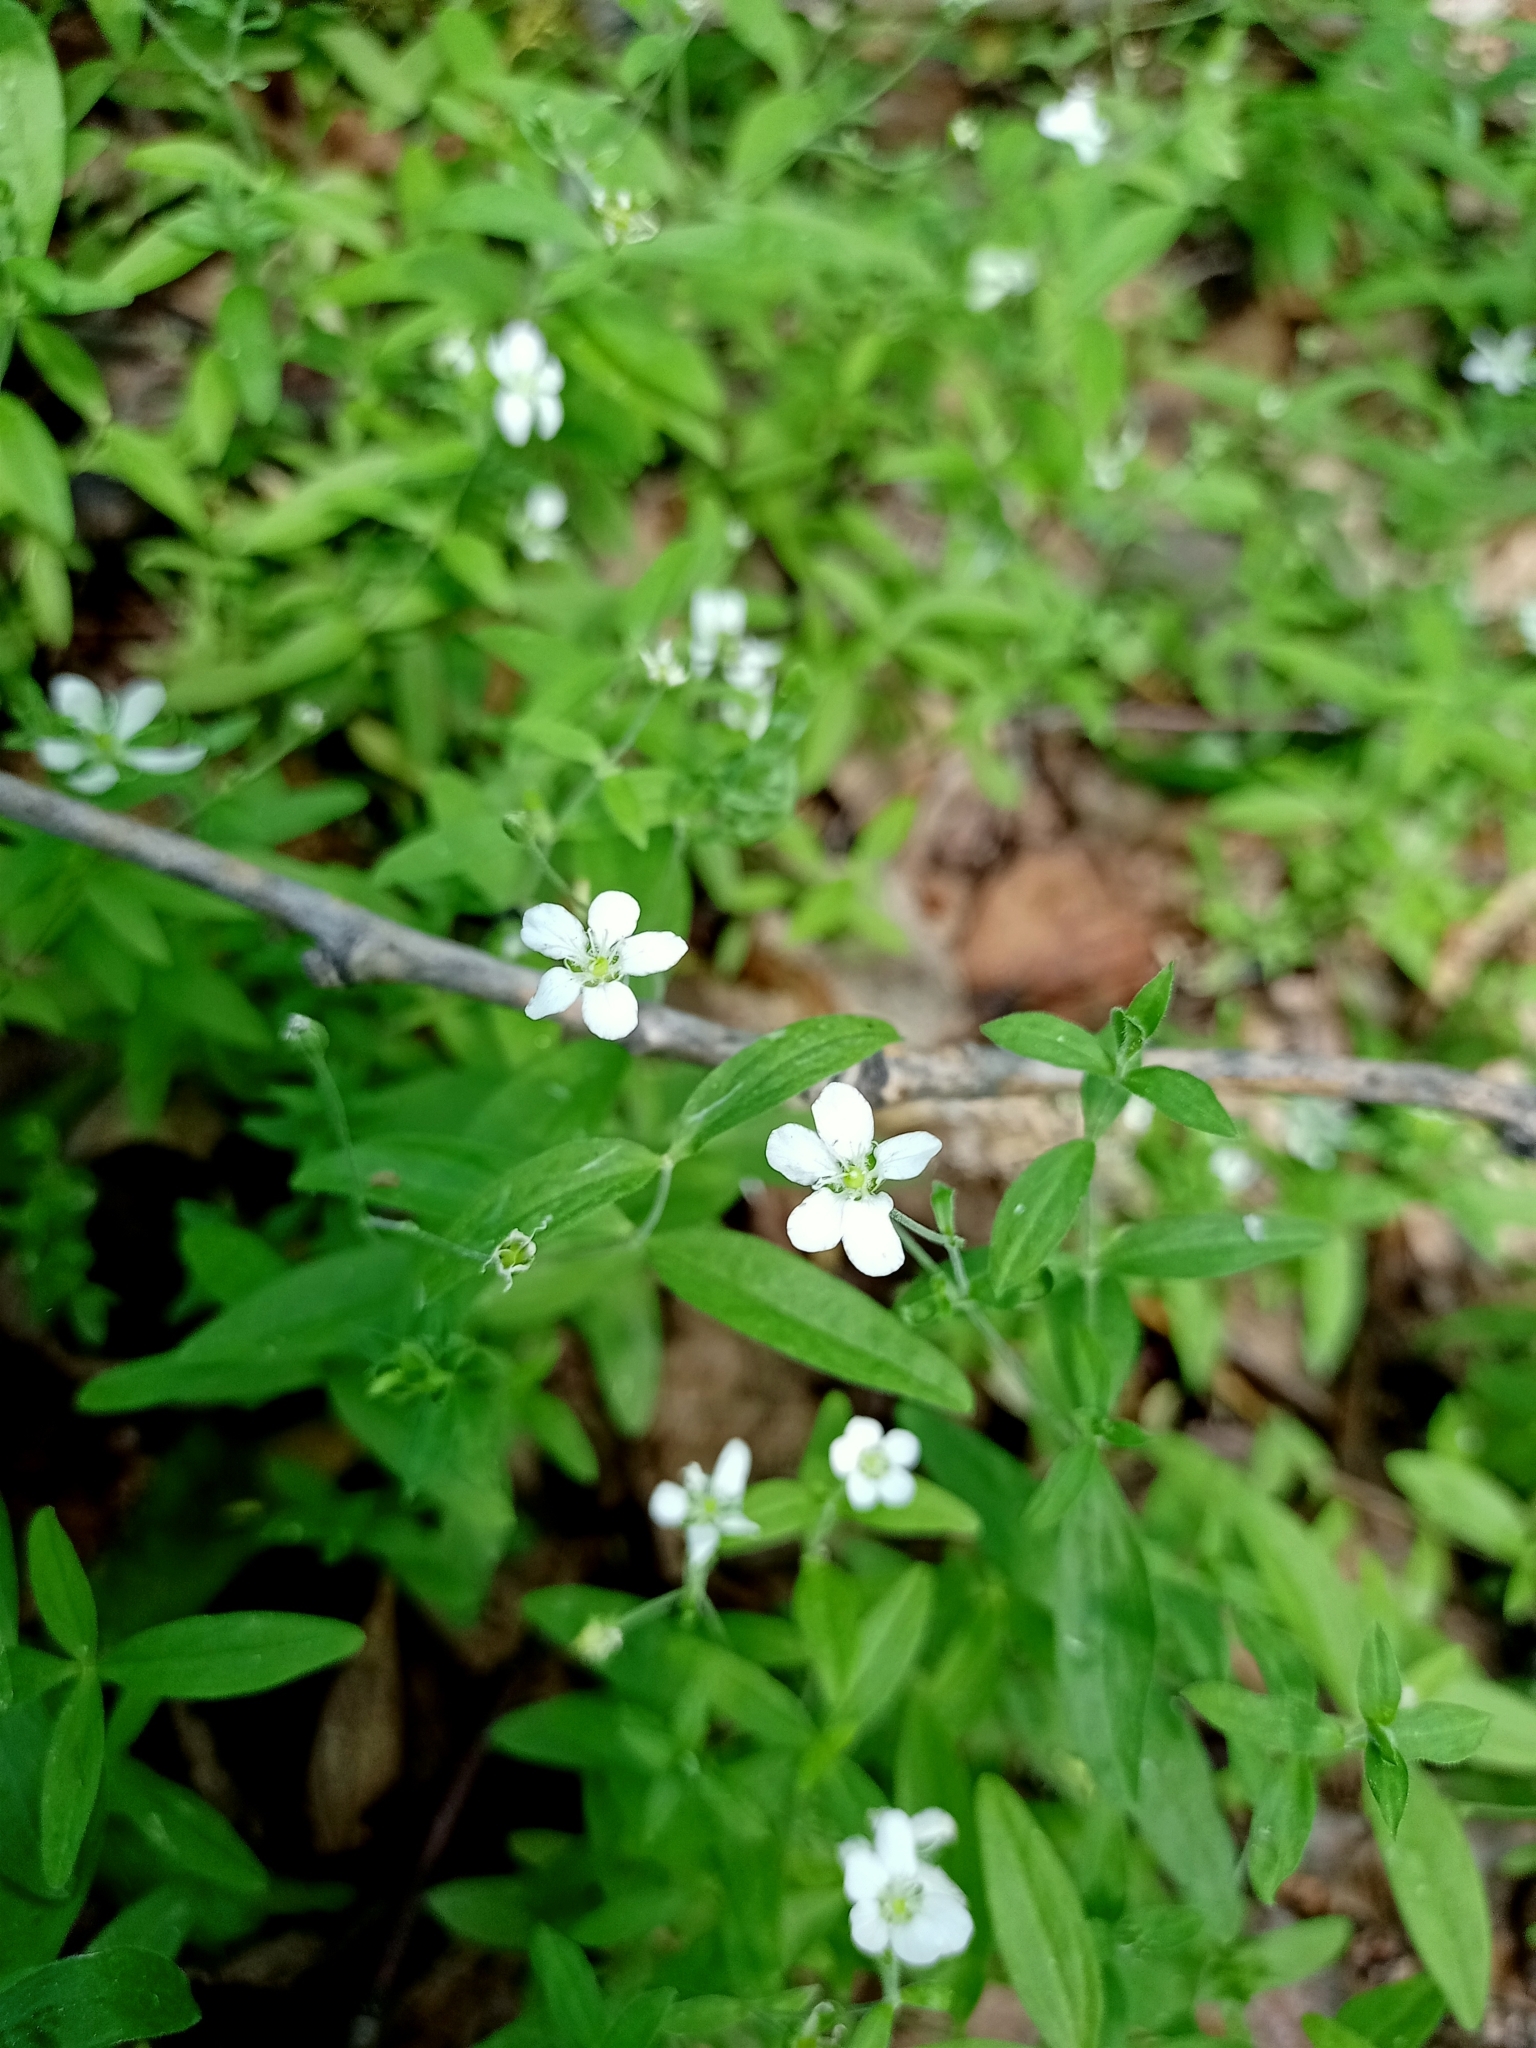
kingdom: Plantae
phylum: Tracheophyta
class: Magnoliopsida
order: Caryophyllales
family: Caryophyllaceae
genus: Moehringia
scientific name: Moehringia lateriflora
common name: Blunt-leaved sandwort
